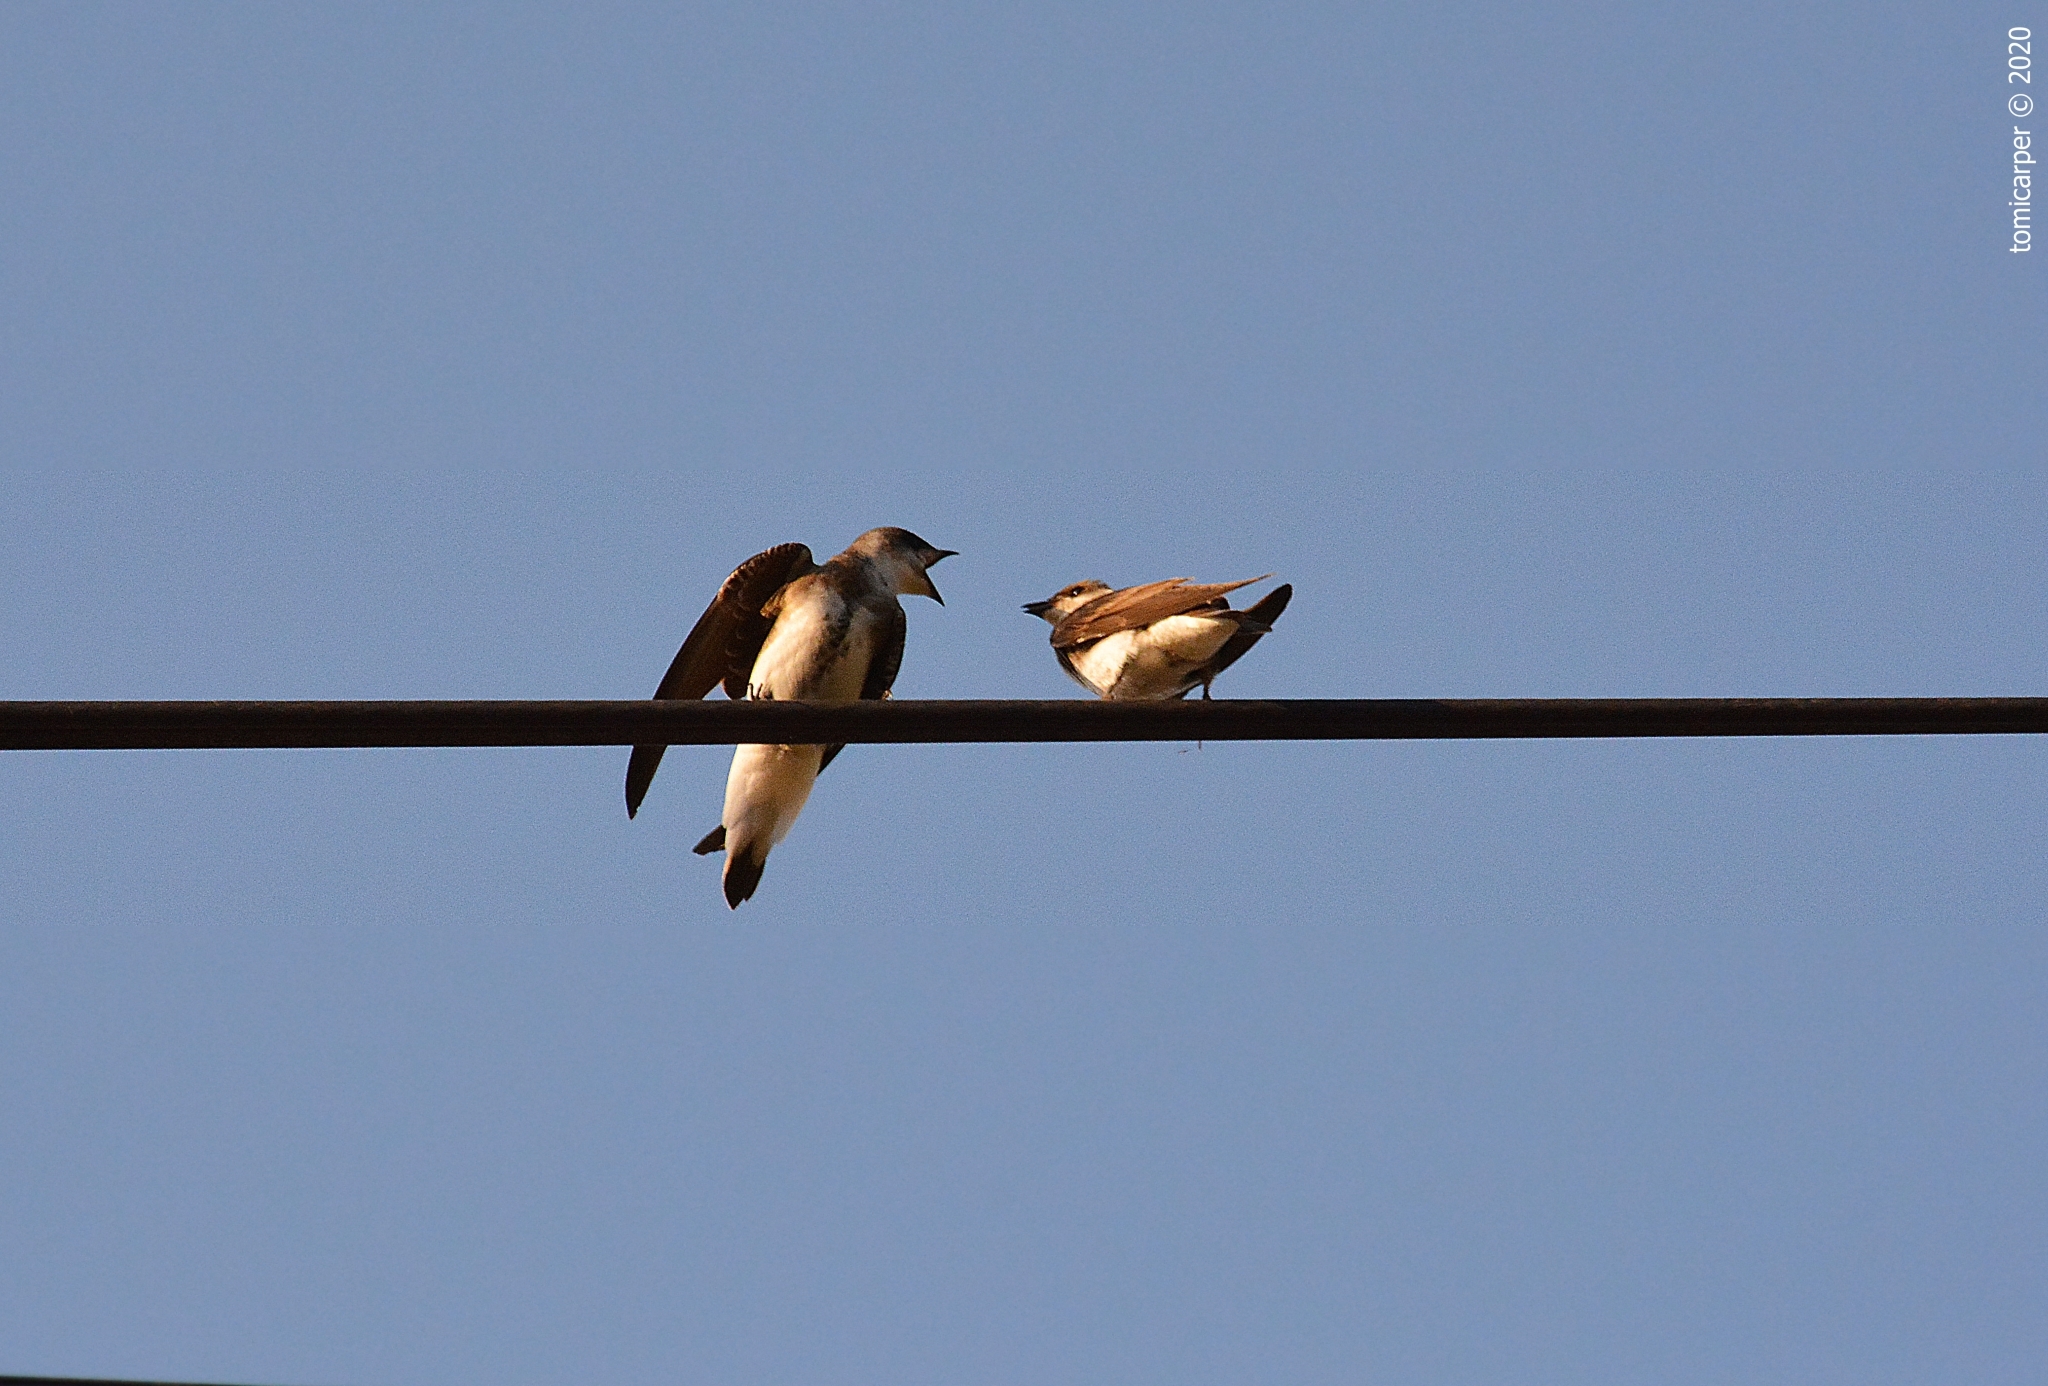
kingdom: Animalia
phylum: Chordata
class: Aves
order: Passeriformes
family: Hirundinidae
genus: Progne
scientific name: Progne tapera
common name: Brown-chested martin
